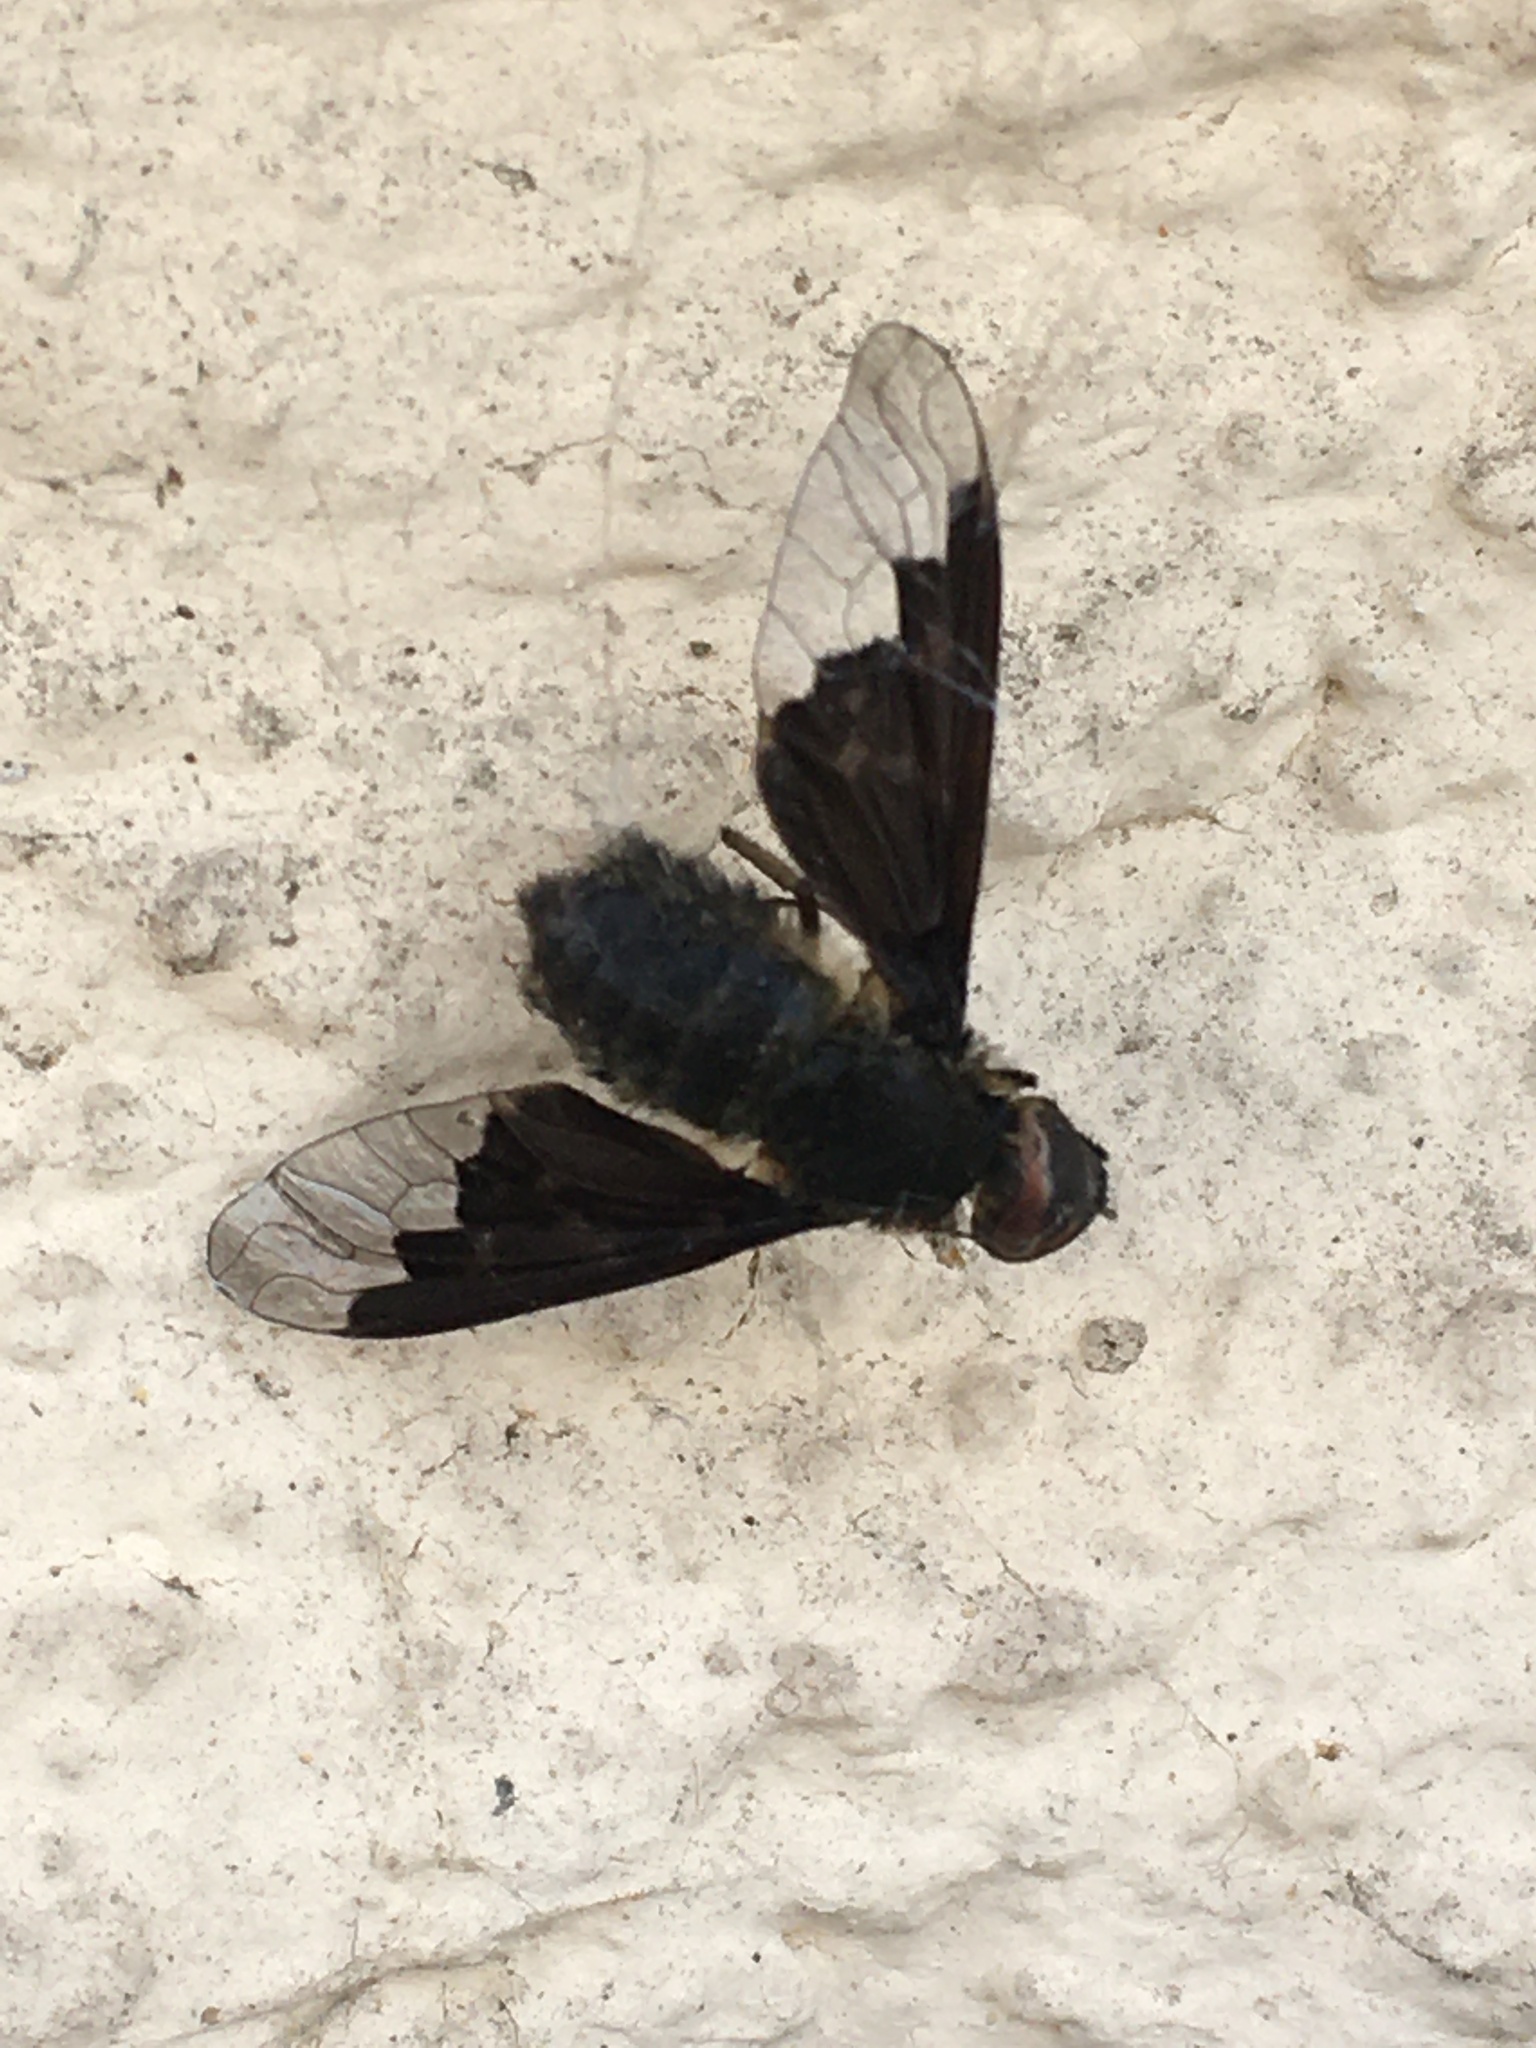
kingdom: Animalia
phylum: Arthropoda
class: Insecta
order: Diptera
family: Bombyliidae
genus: Hemipenthes
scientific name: Hemipenthes morio
